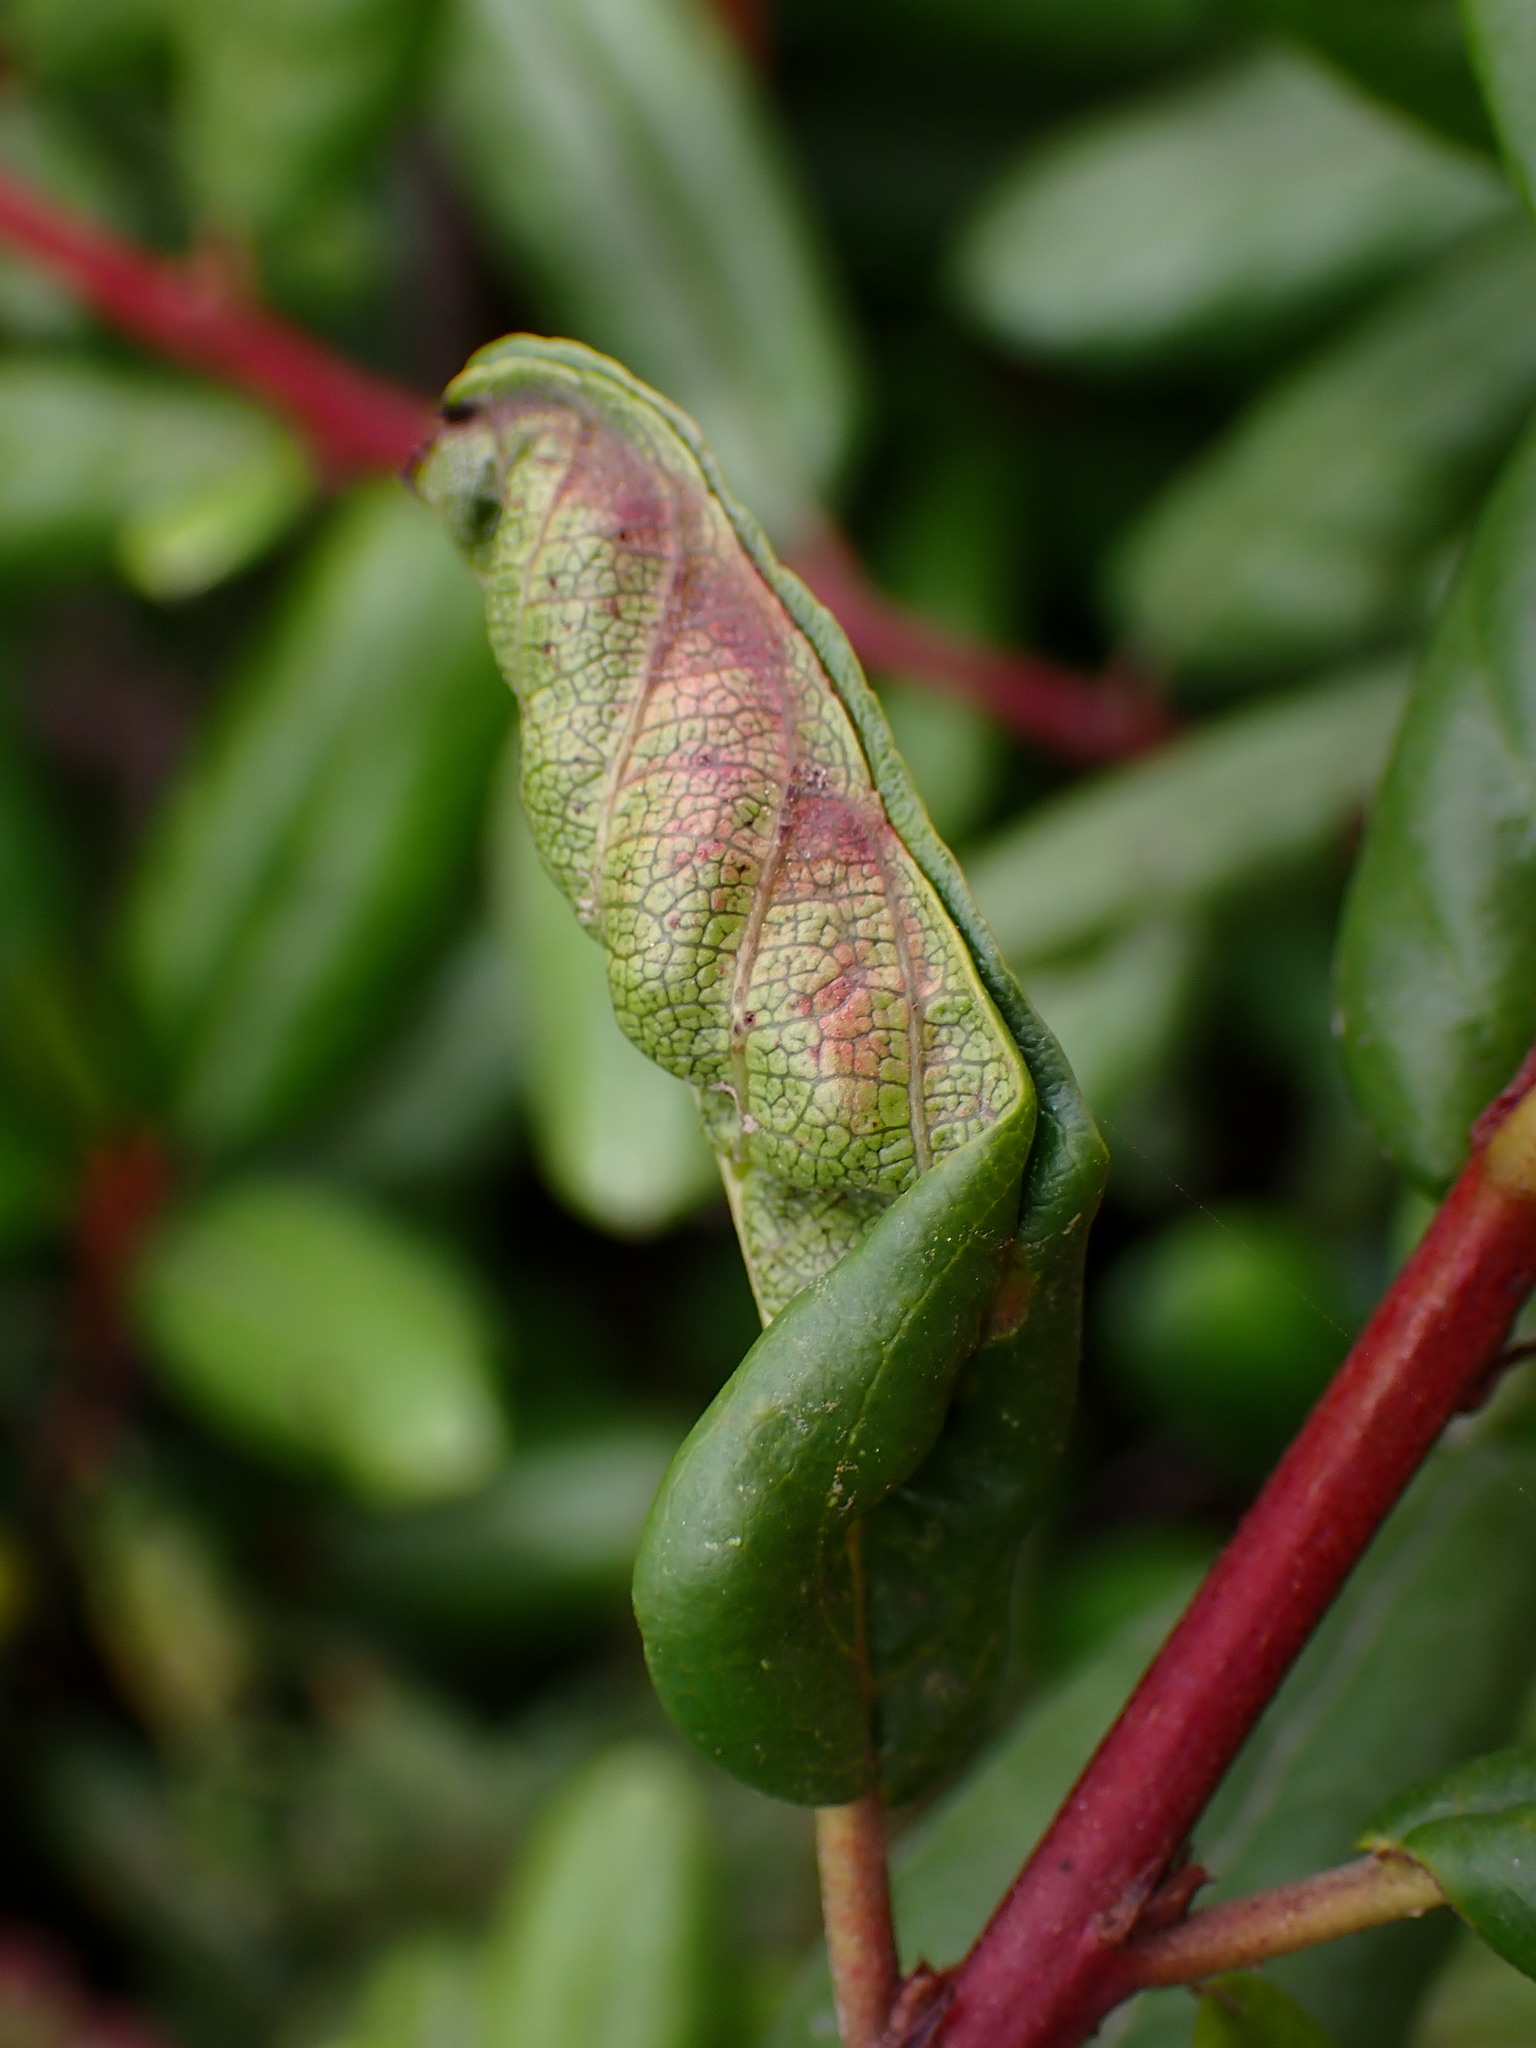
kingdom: Animalia
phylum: Arthropoda
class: Insecta
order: Lepidoptera
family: Cosmopterigidae
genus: Sorhagenia
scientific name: Sorhagenia nimbosus
